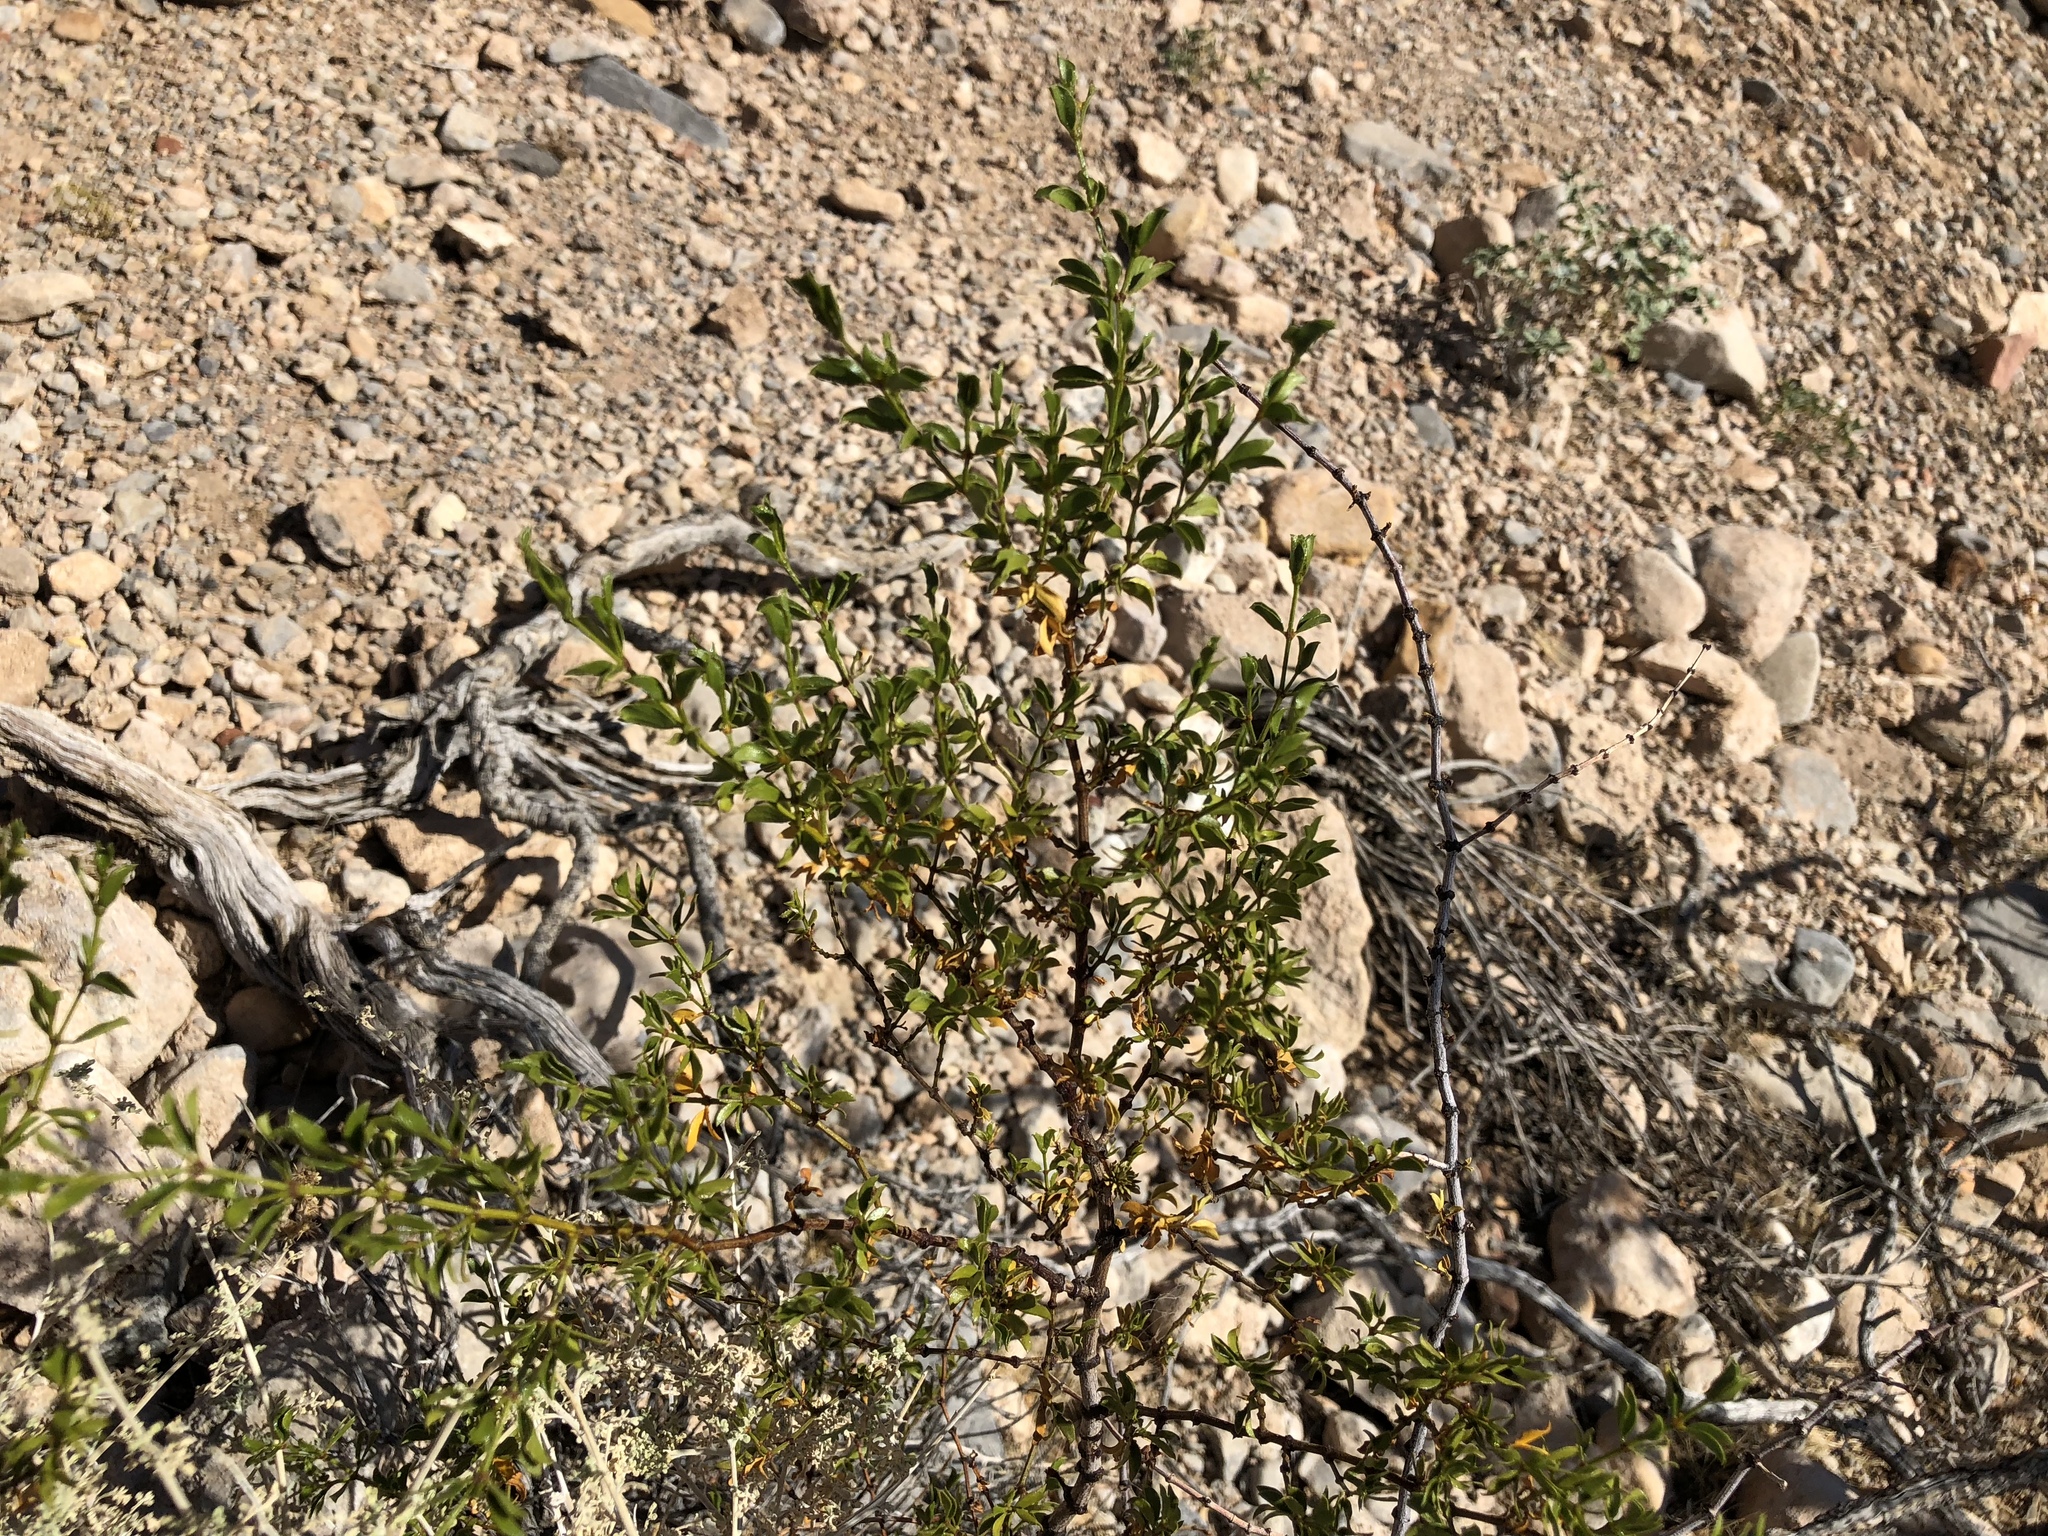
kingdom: Plantae
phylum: Tracheophyta
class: Magnoliopsida
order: Zygophyllales
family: Zygophyllaceae
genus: Larrea
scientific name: Larrea tridentata
